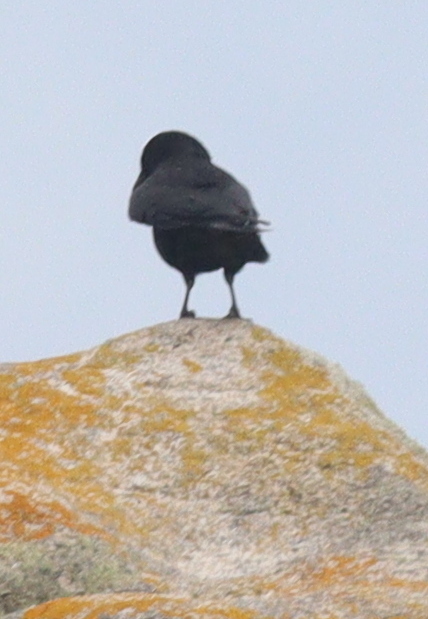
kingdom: Animalia
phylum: Chordata
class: Aves
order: Passeriformes
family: Corvidae
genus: Corvus
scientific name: Corvus corone
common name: Carrion crow
